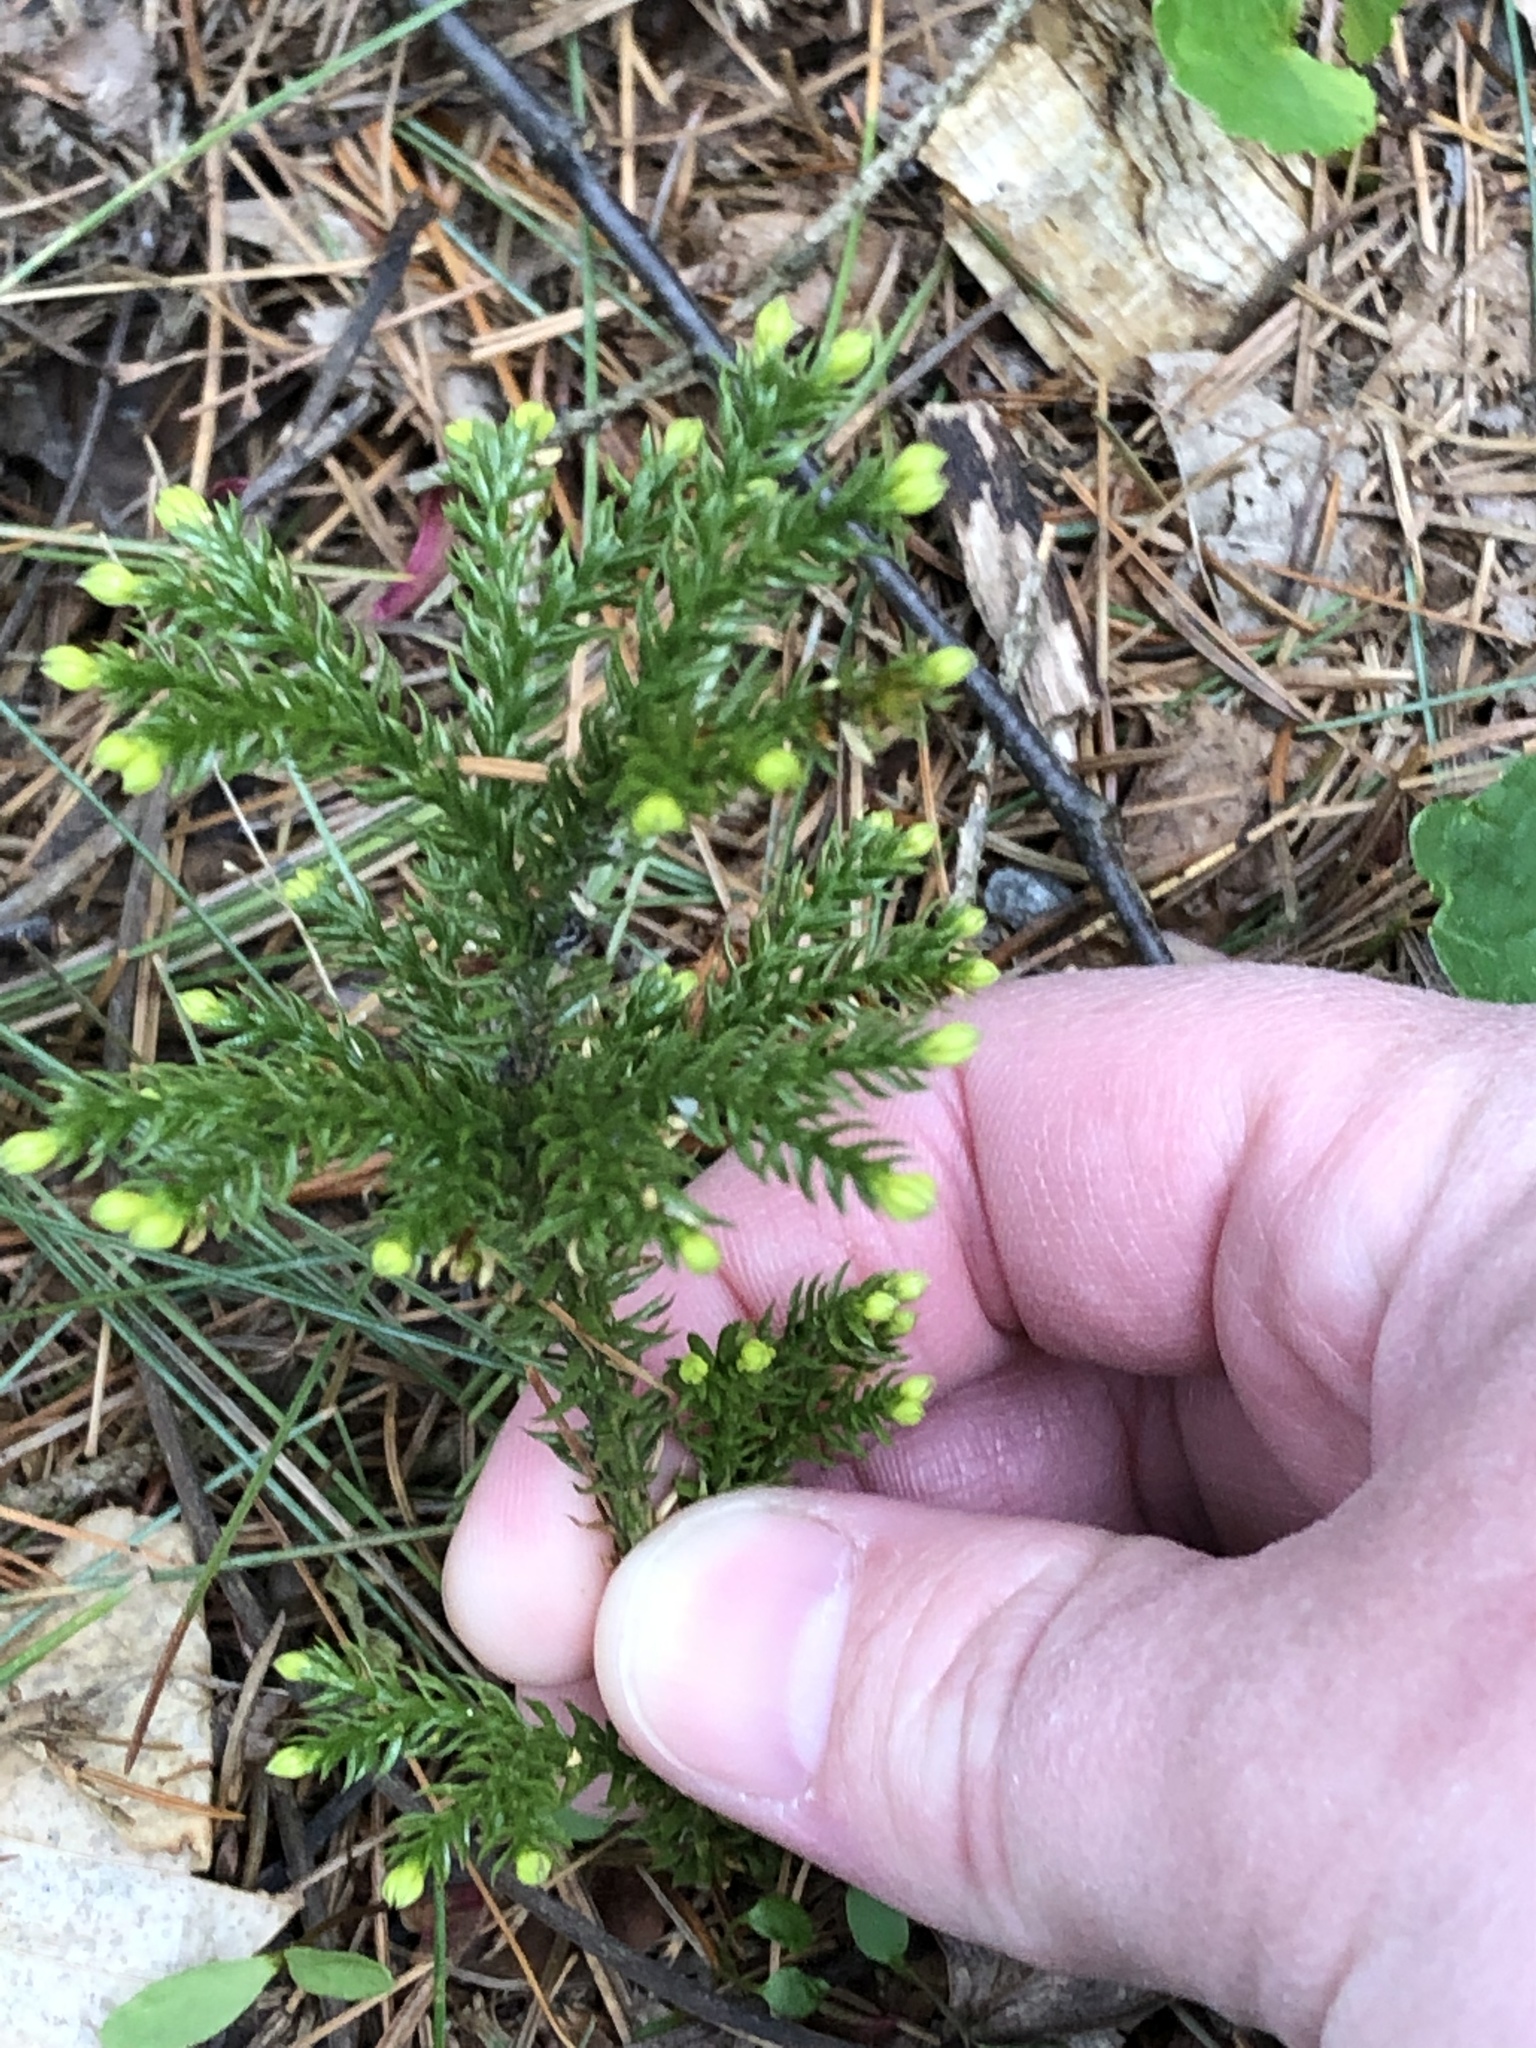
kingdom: Plantae
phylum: Tracheophyta
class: Lycopodiopsida
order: Lycopodiales
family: Lycopodiaceae
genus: Dendrolycopodium
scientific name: Dendrolycopodium dendroideum
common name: Northern tree-clubmoss
